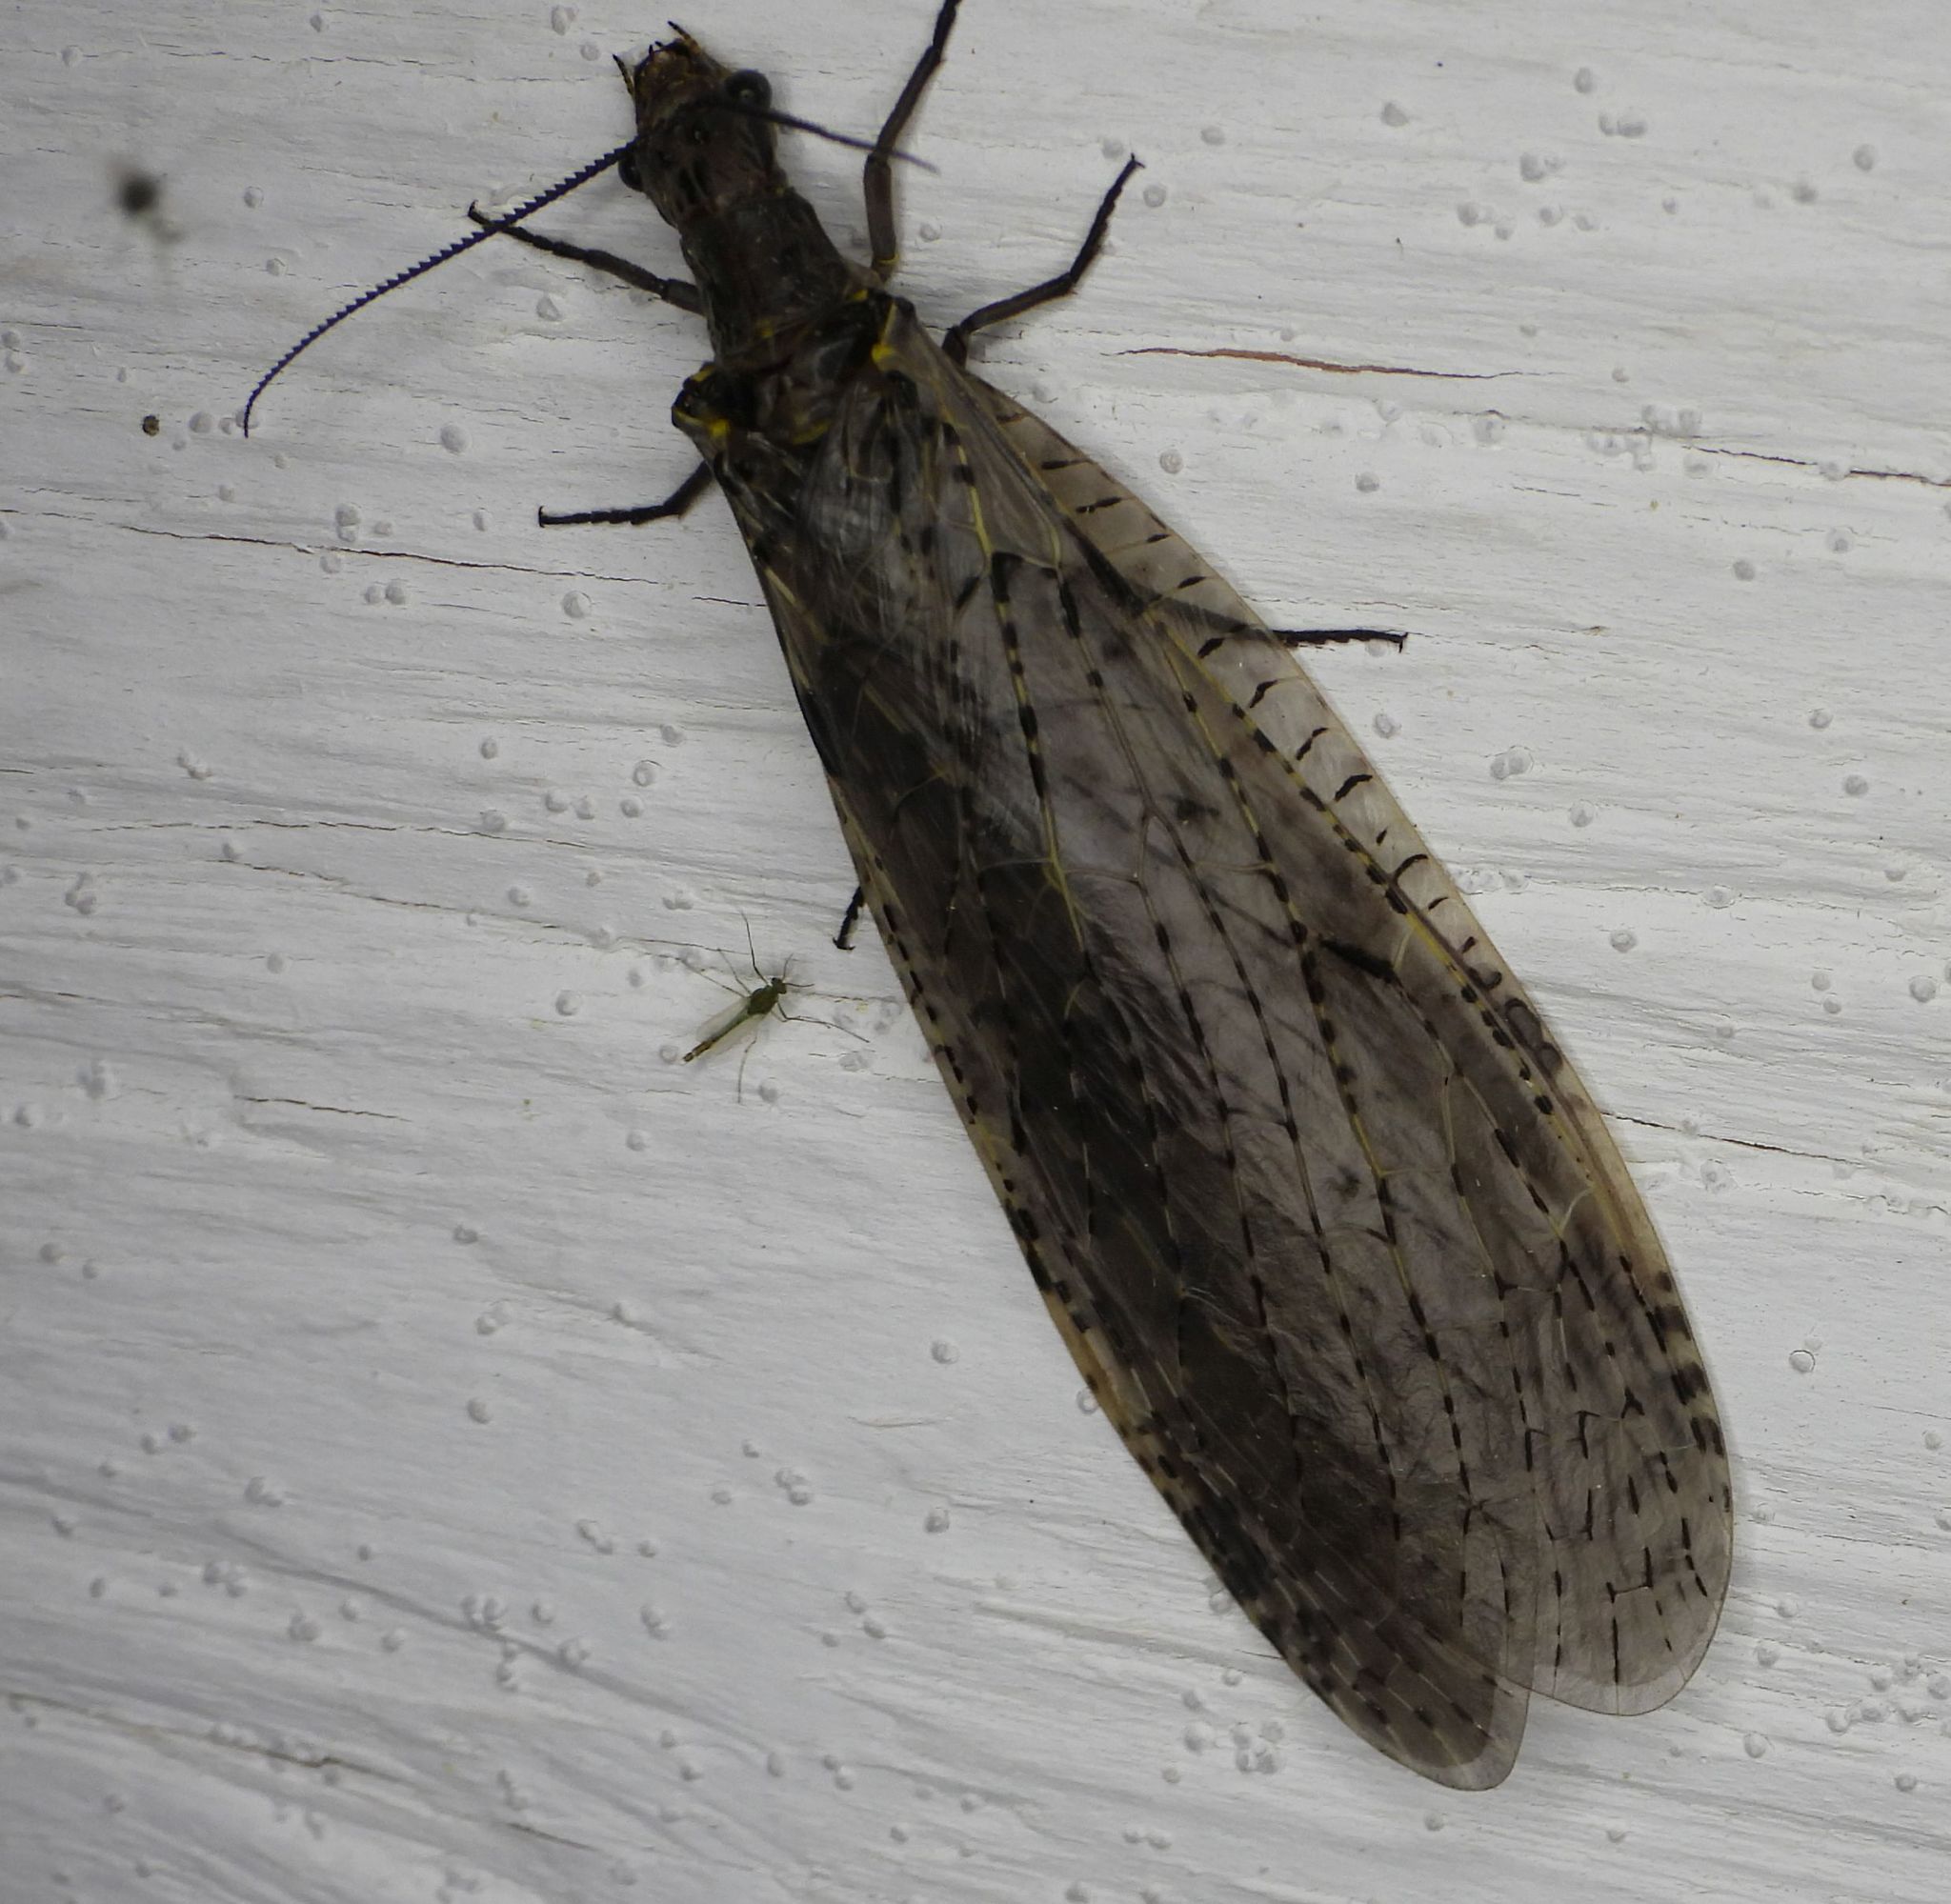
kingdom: Animalia
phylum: Arthropoda
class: Insecta
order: Megaloptera
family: Corydalidae
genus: Chauliodes
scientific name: Chauliodes rastricornis
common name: Spring fishfly
